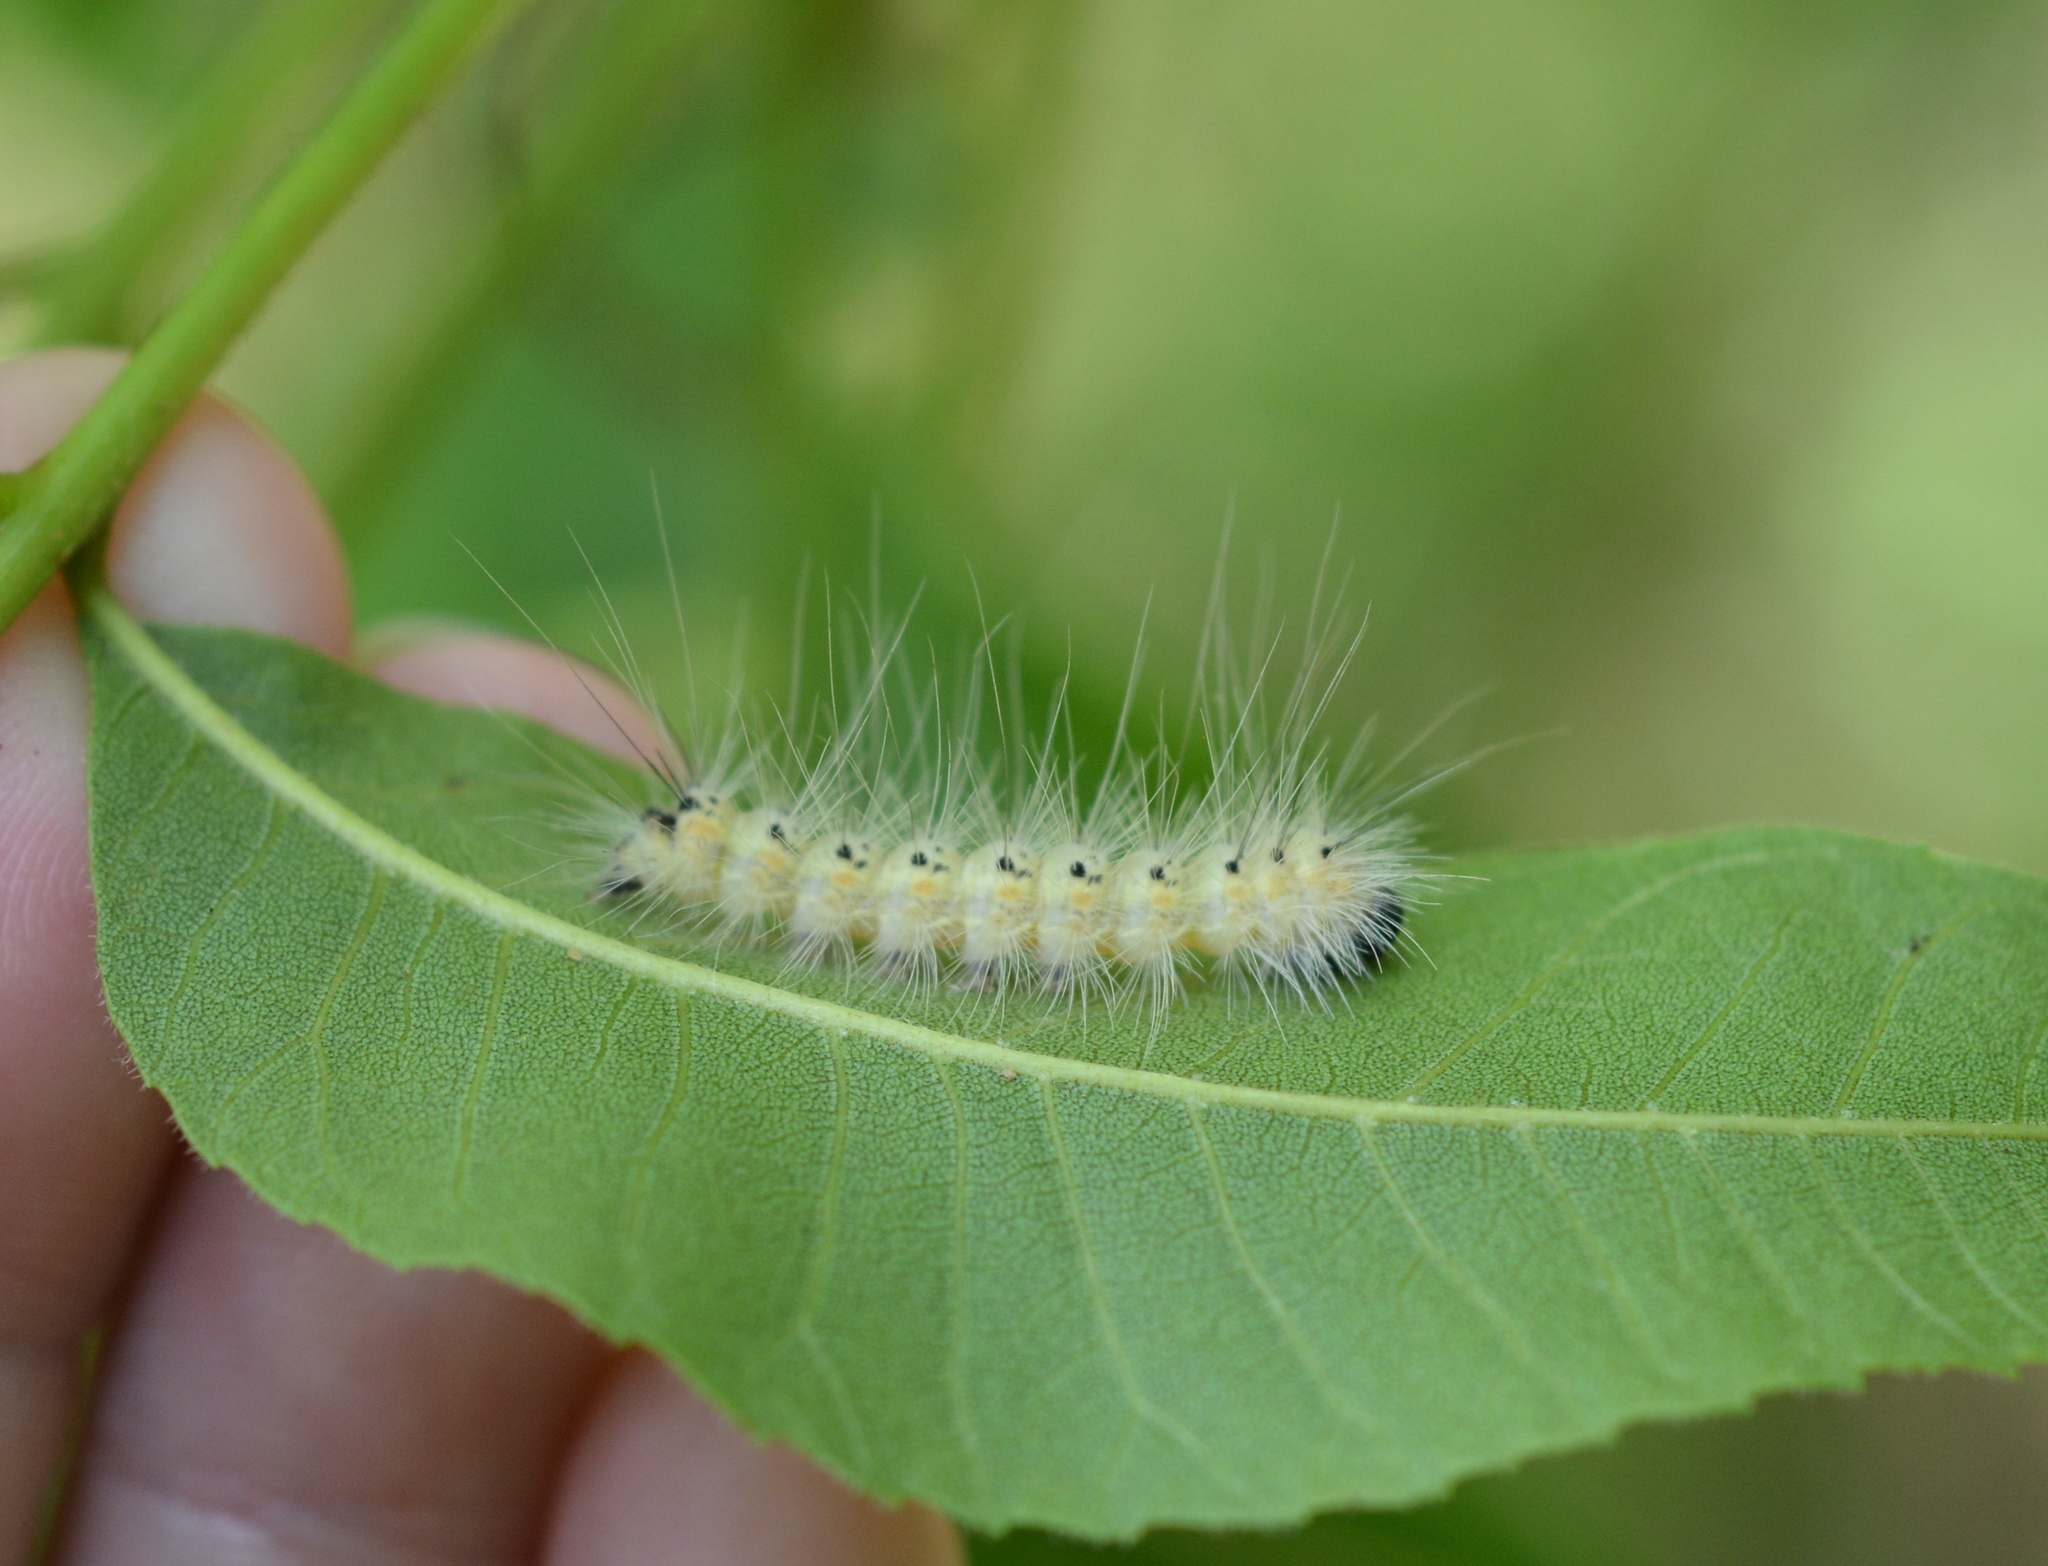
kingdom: Animalia
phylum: Arthropoda
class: Insecta
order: Lepidoptera
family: Erebidae
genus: Hyphantria
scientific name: Hyphantria cunea
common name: American white moth
